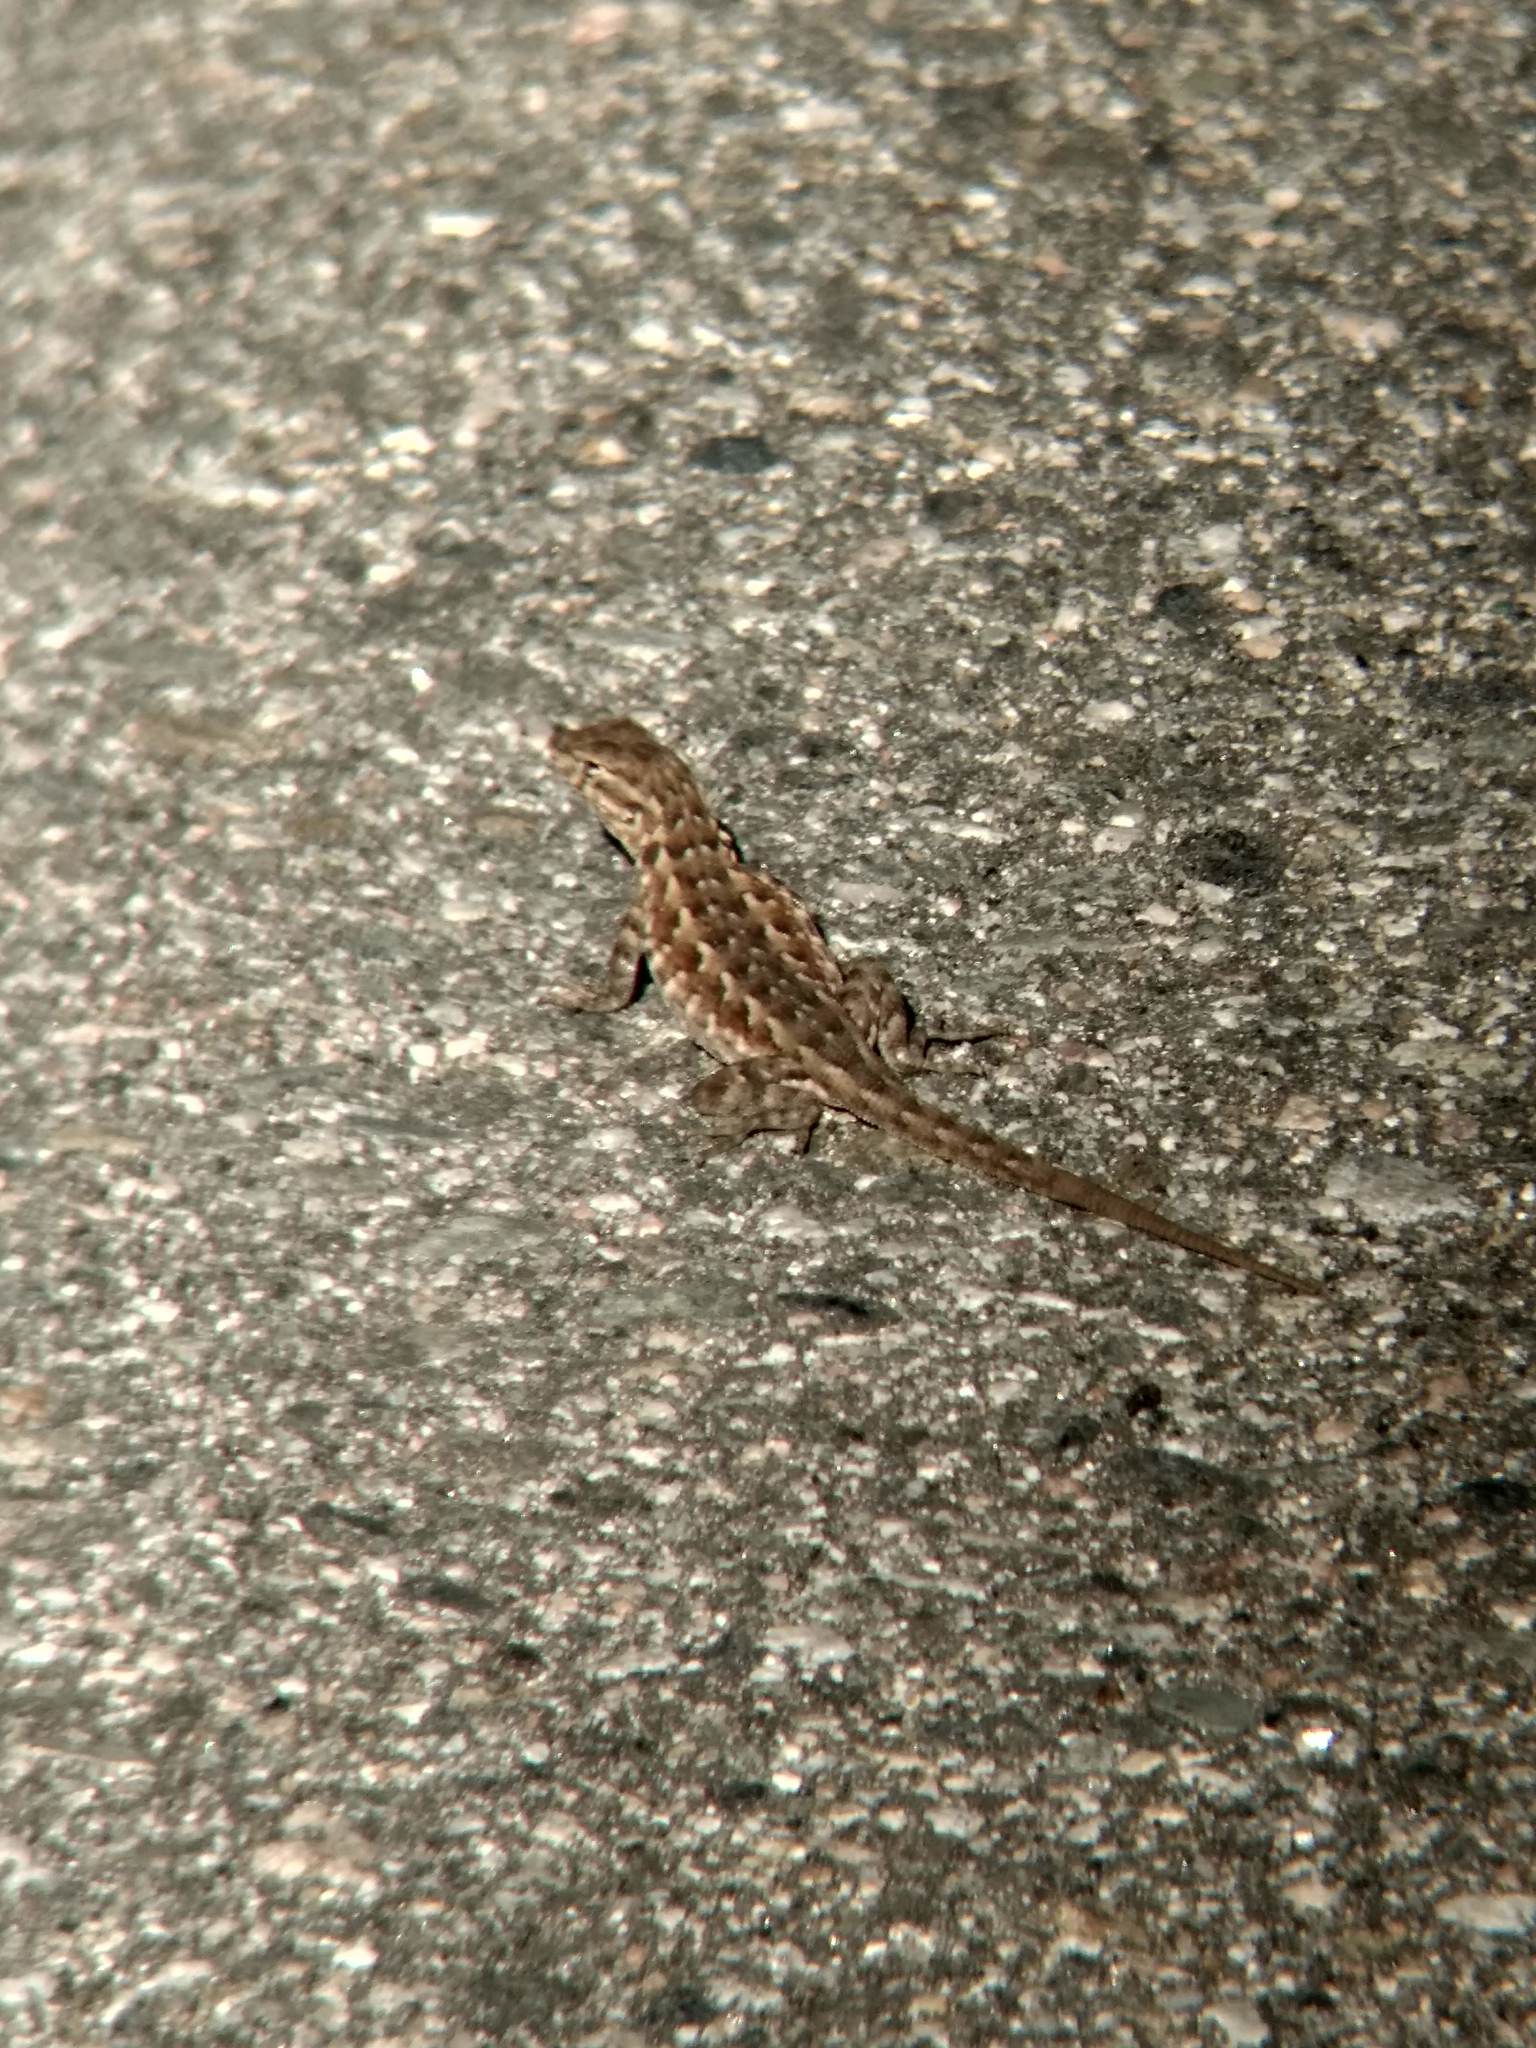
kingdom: Animalia
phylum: Chordata
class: Squamata
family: Phrynosomatidae
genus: Uta
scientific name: Uta stansburiana
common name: Side-blotched lizard
